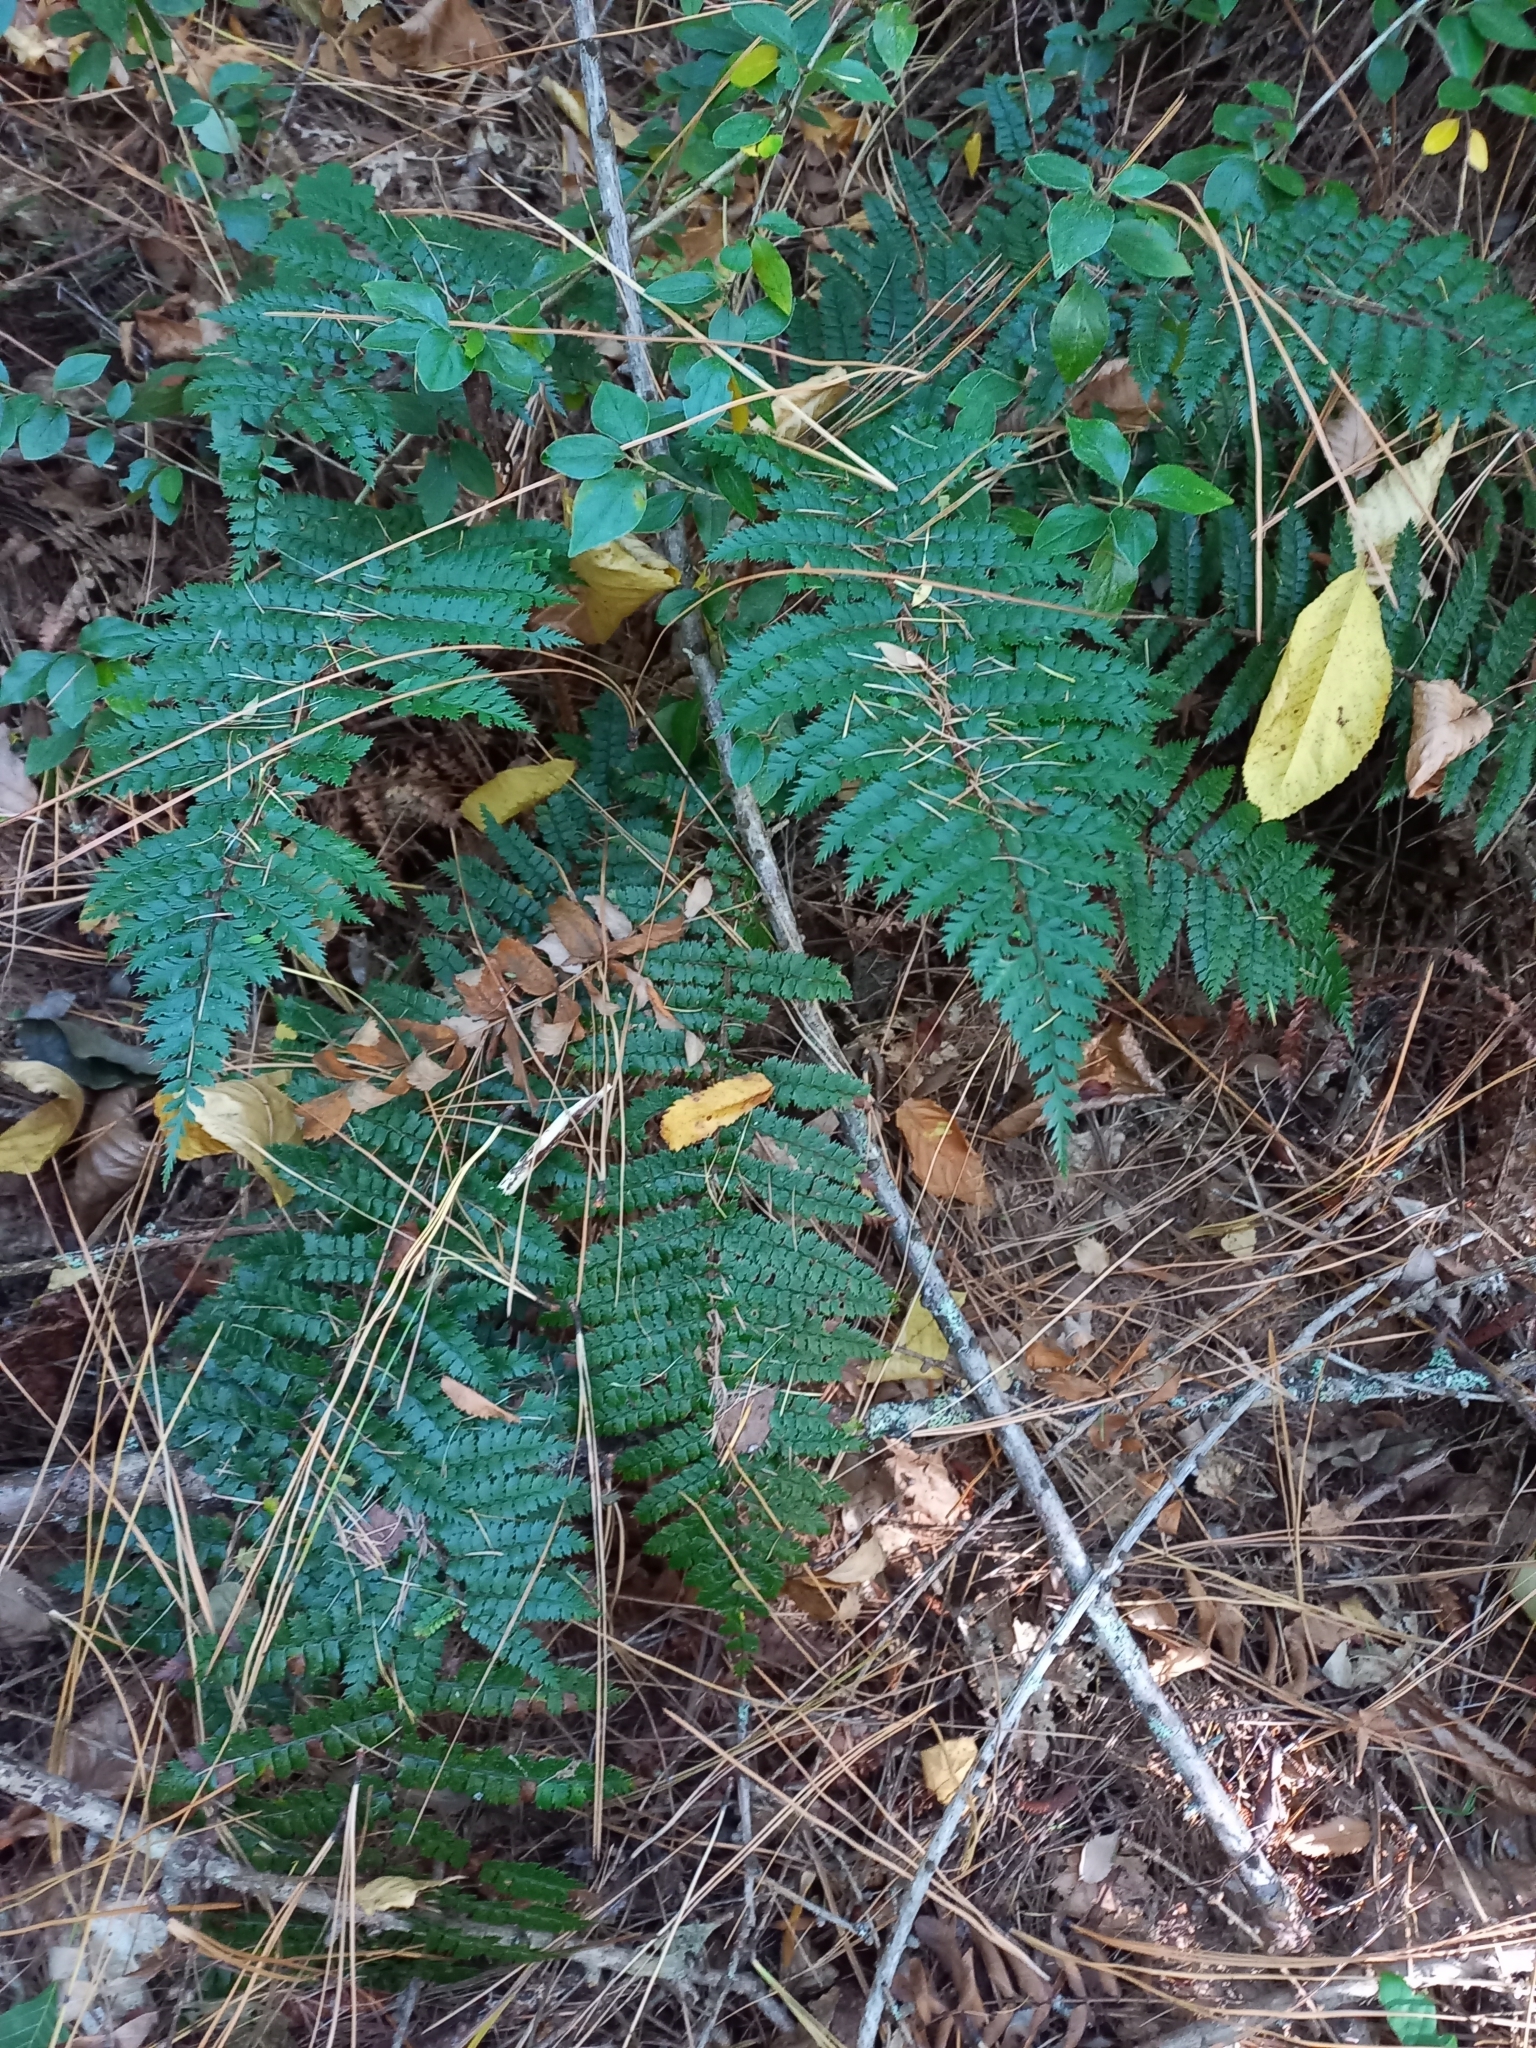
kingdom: Plantae
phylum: Tracheophyta
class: Polypodiopsida
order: Polypodiales
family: Dryopteridaceae
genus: Polystichum
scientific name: Polystichum vestitum
